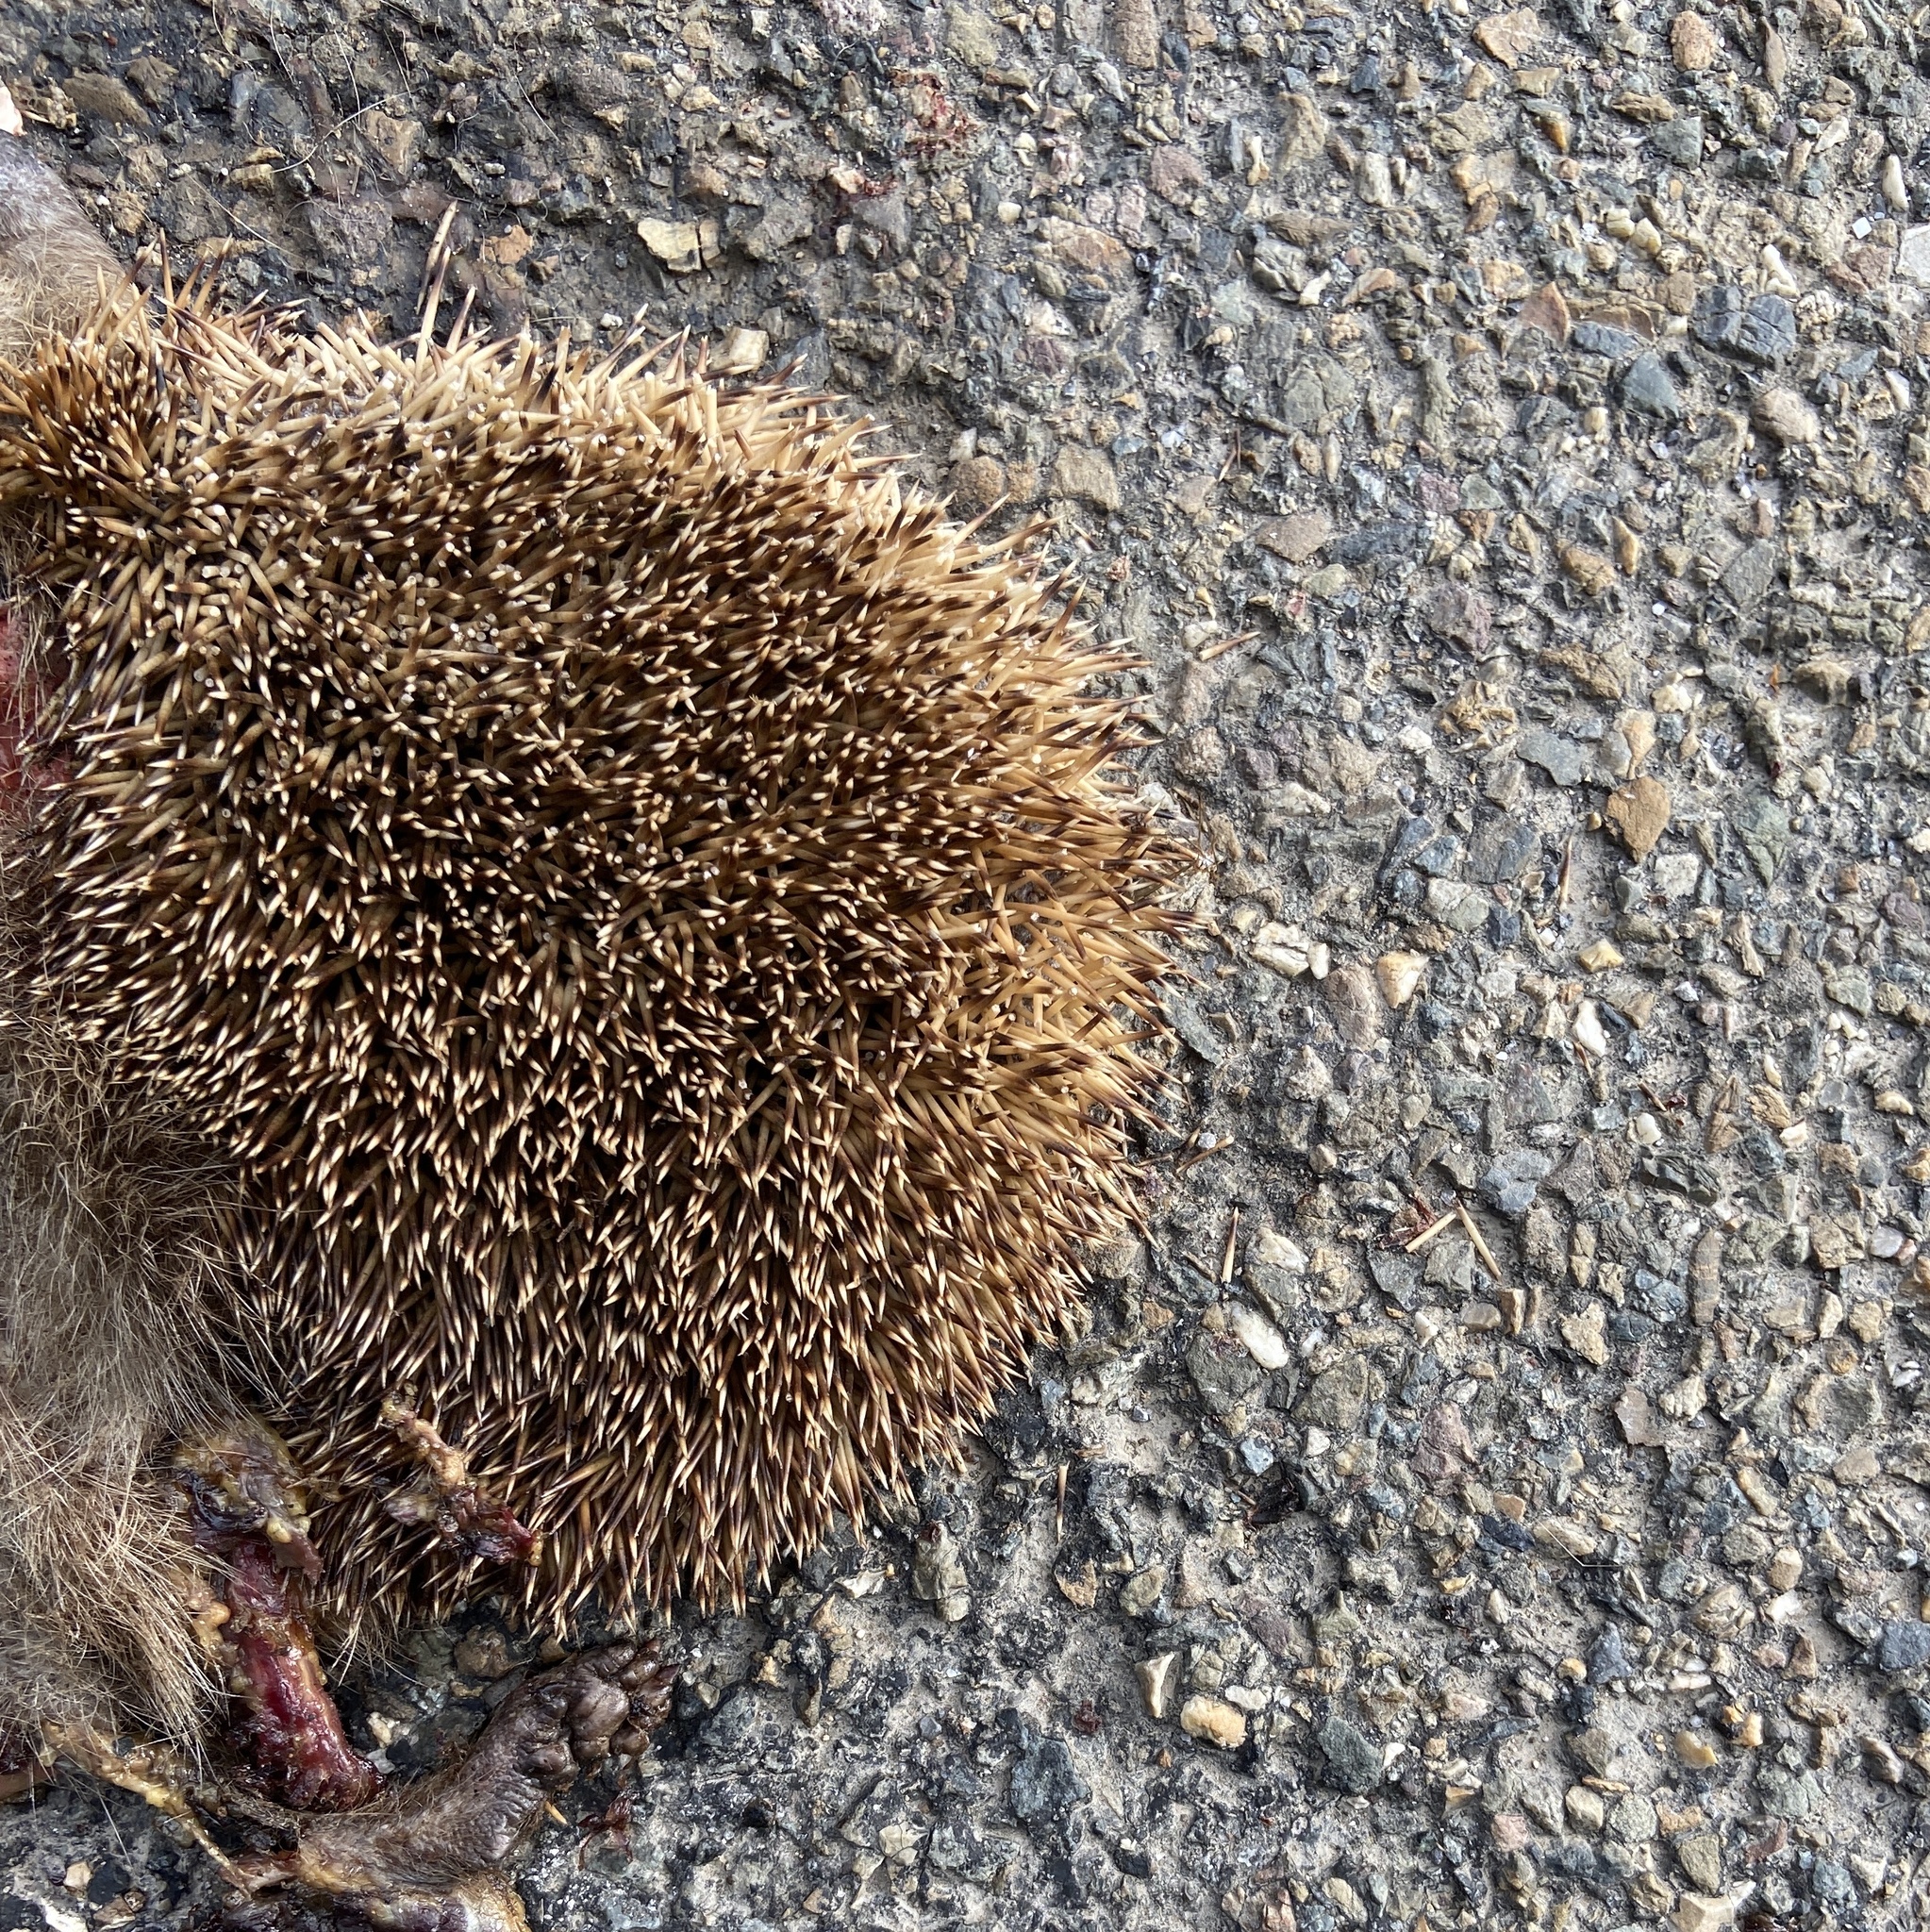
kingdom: Animalia
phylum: Chordata
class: Mammalia
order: Erinaceomorpha
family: Erinaceidae
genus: Erinaceus
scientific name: Erinaceus europaeus
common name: West european hedgehog
